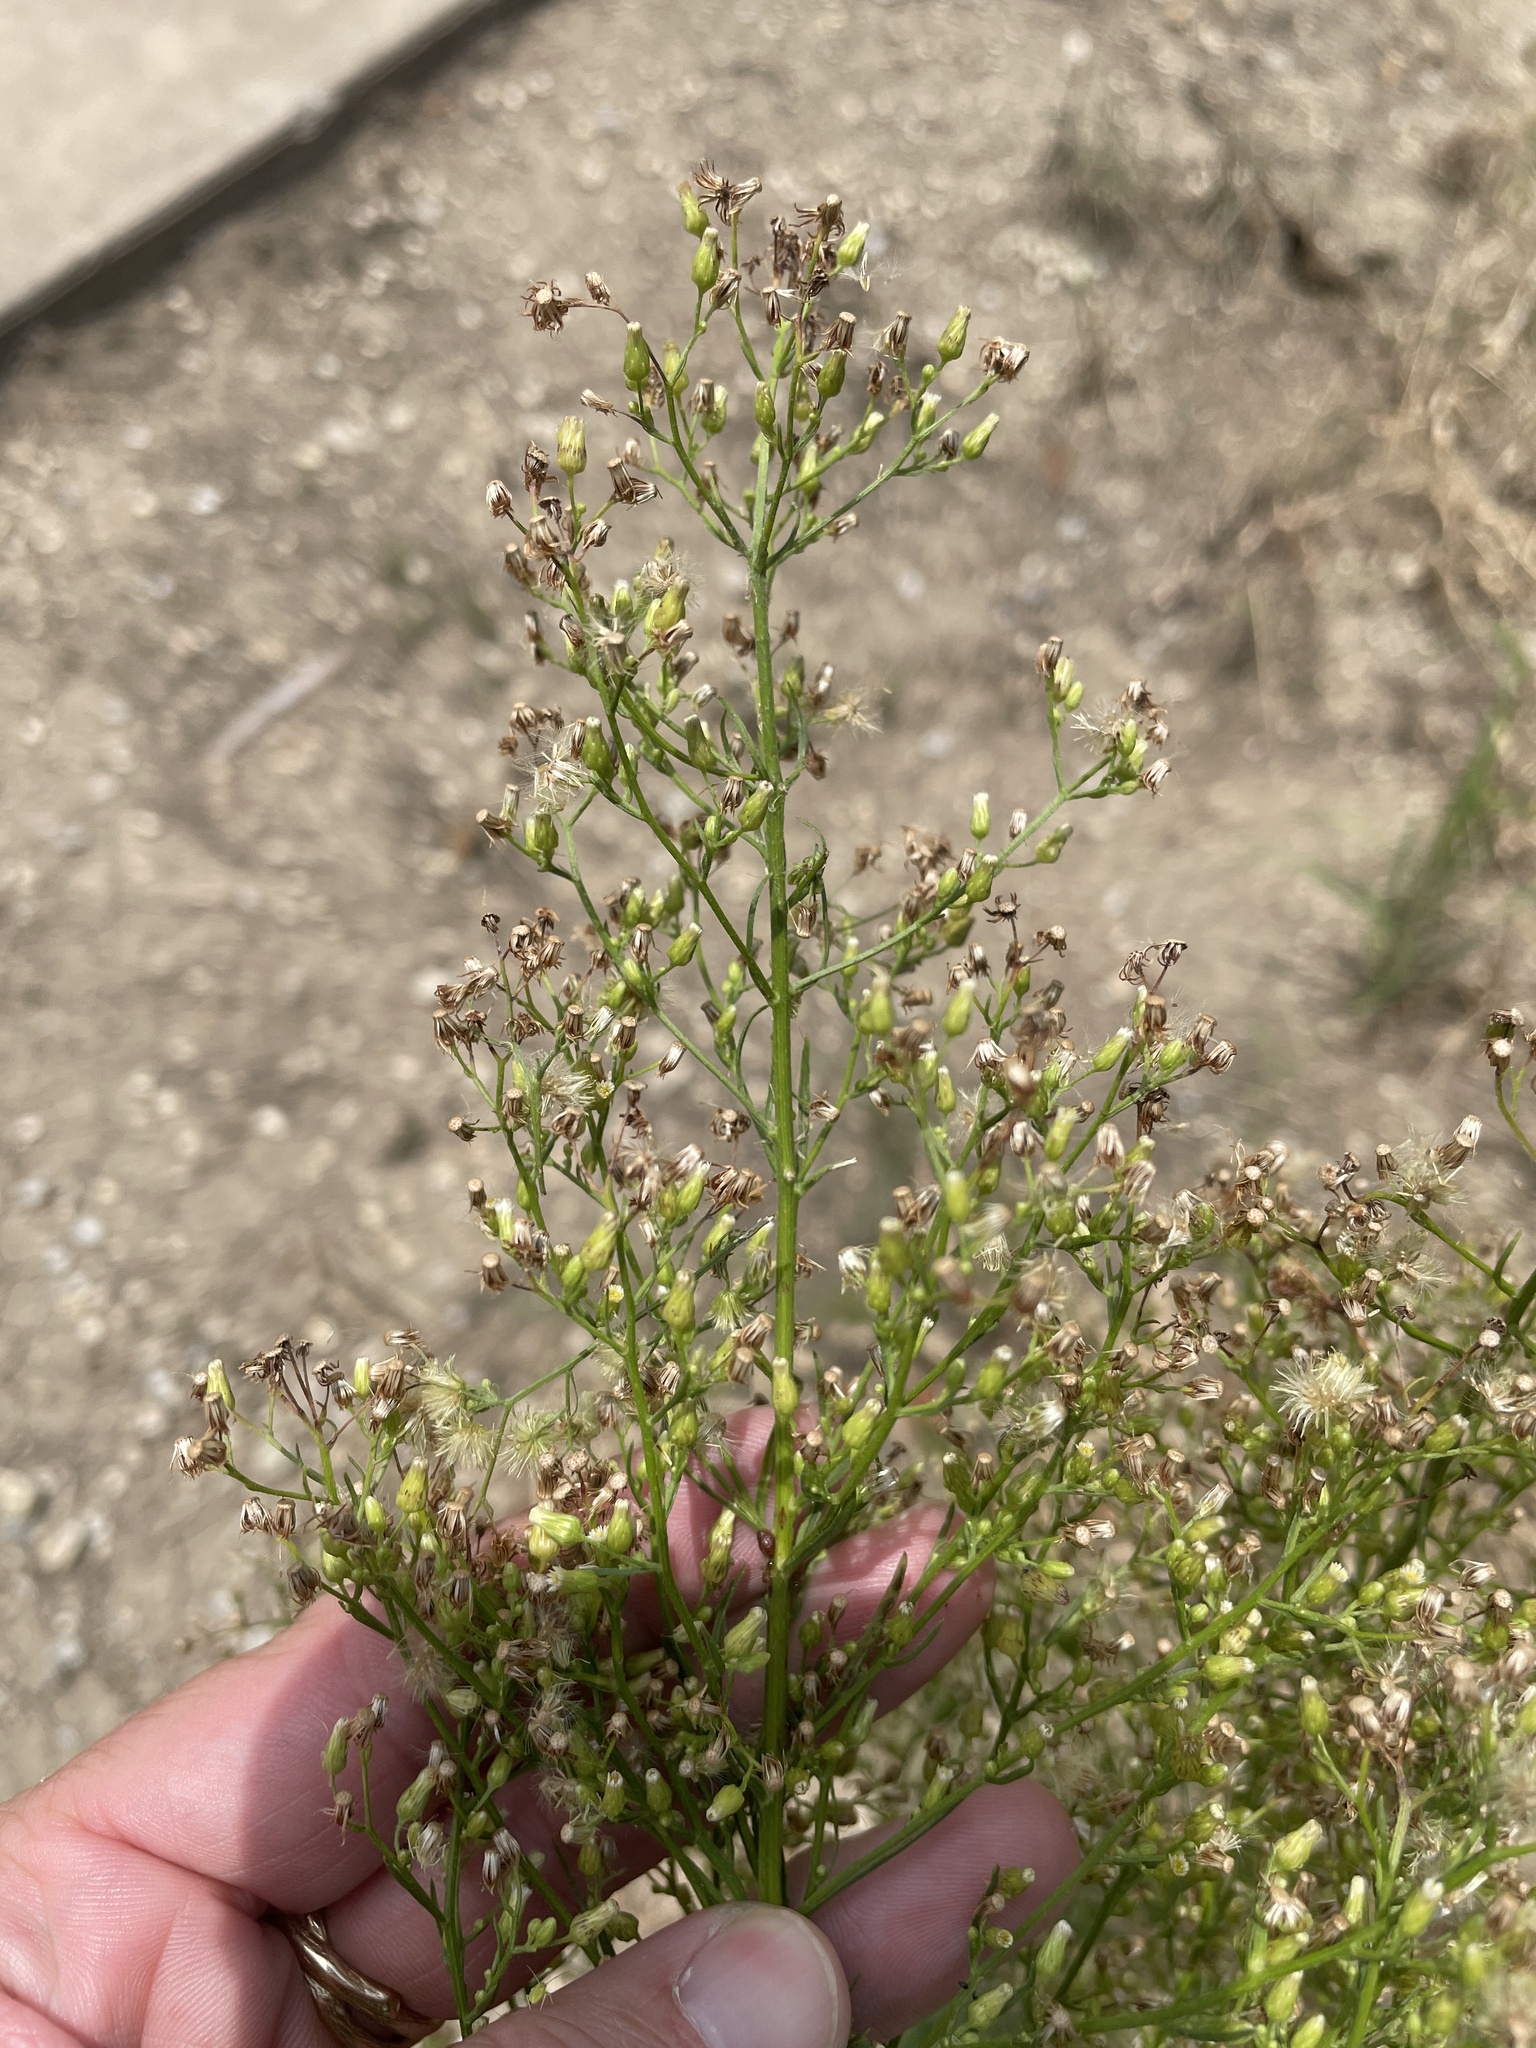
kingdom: Plantae
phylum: Tracheophyta
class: Magnoliopsida
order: Asterales
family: Asteraceae
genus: Erigeron
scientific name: Erigeron canadensis
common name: Canadian fleabane
